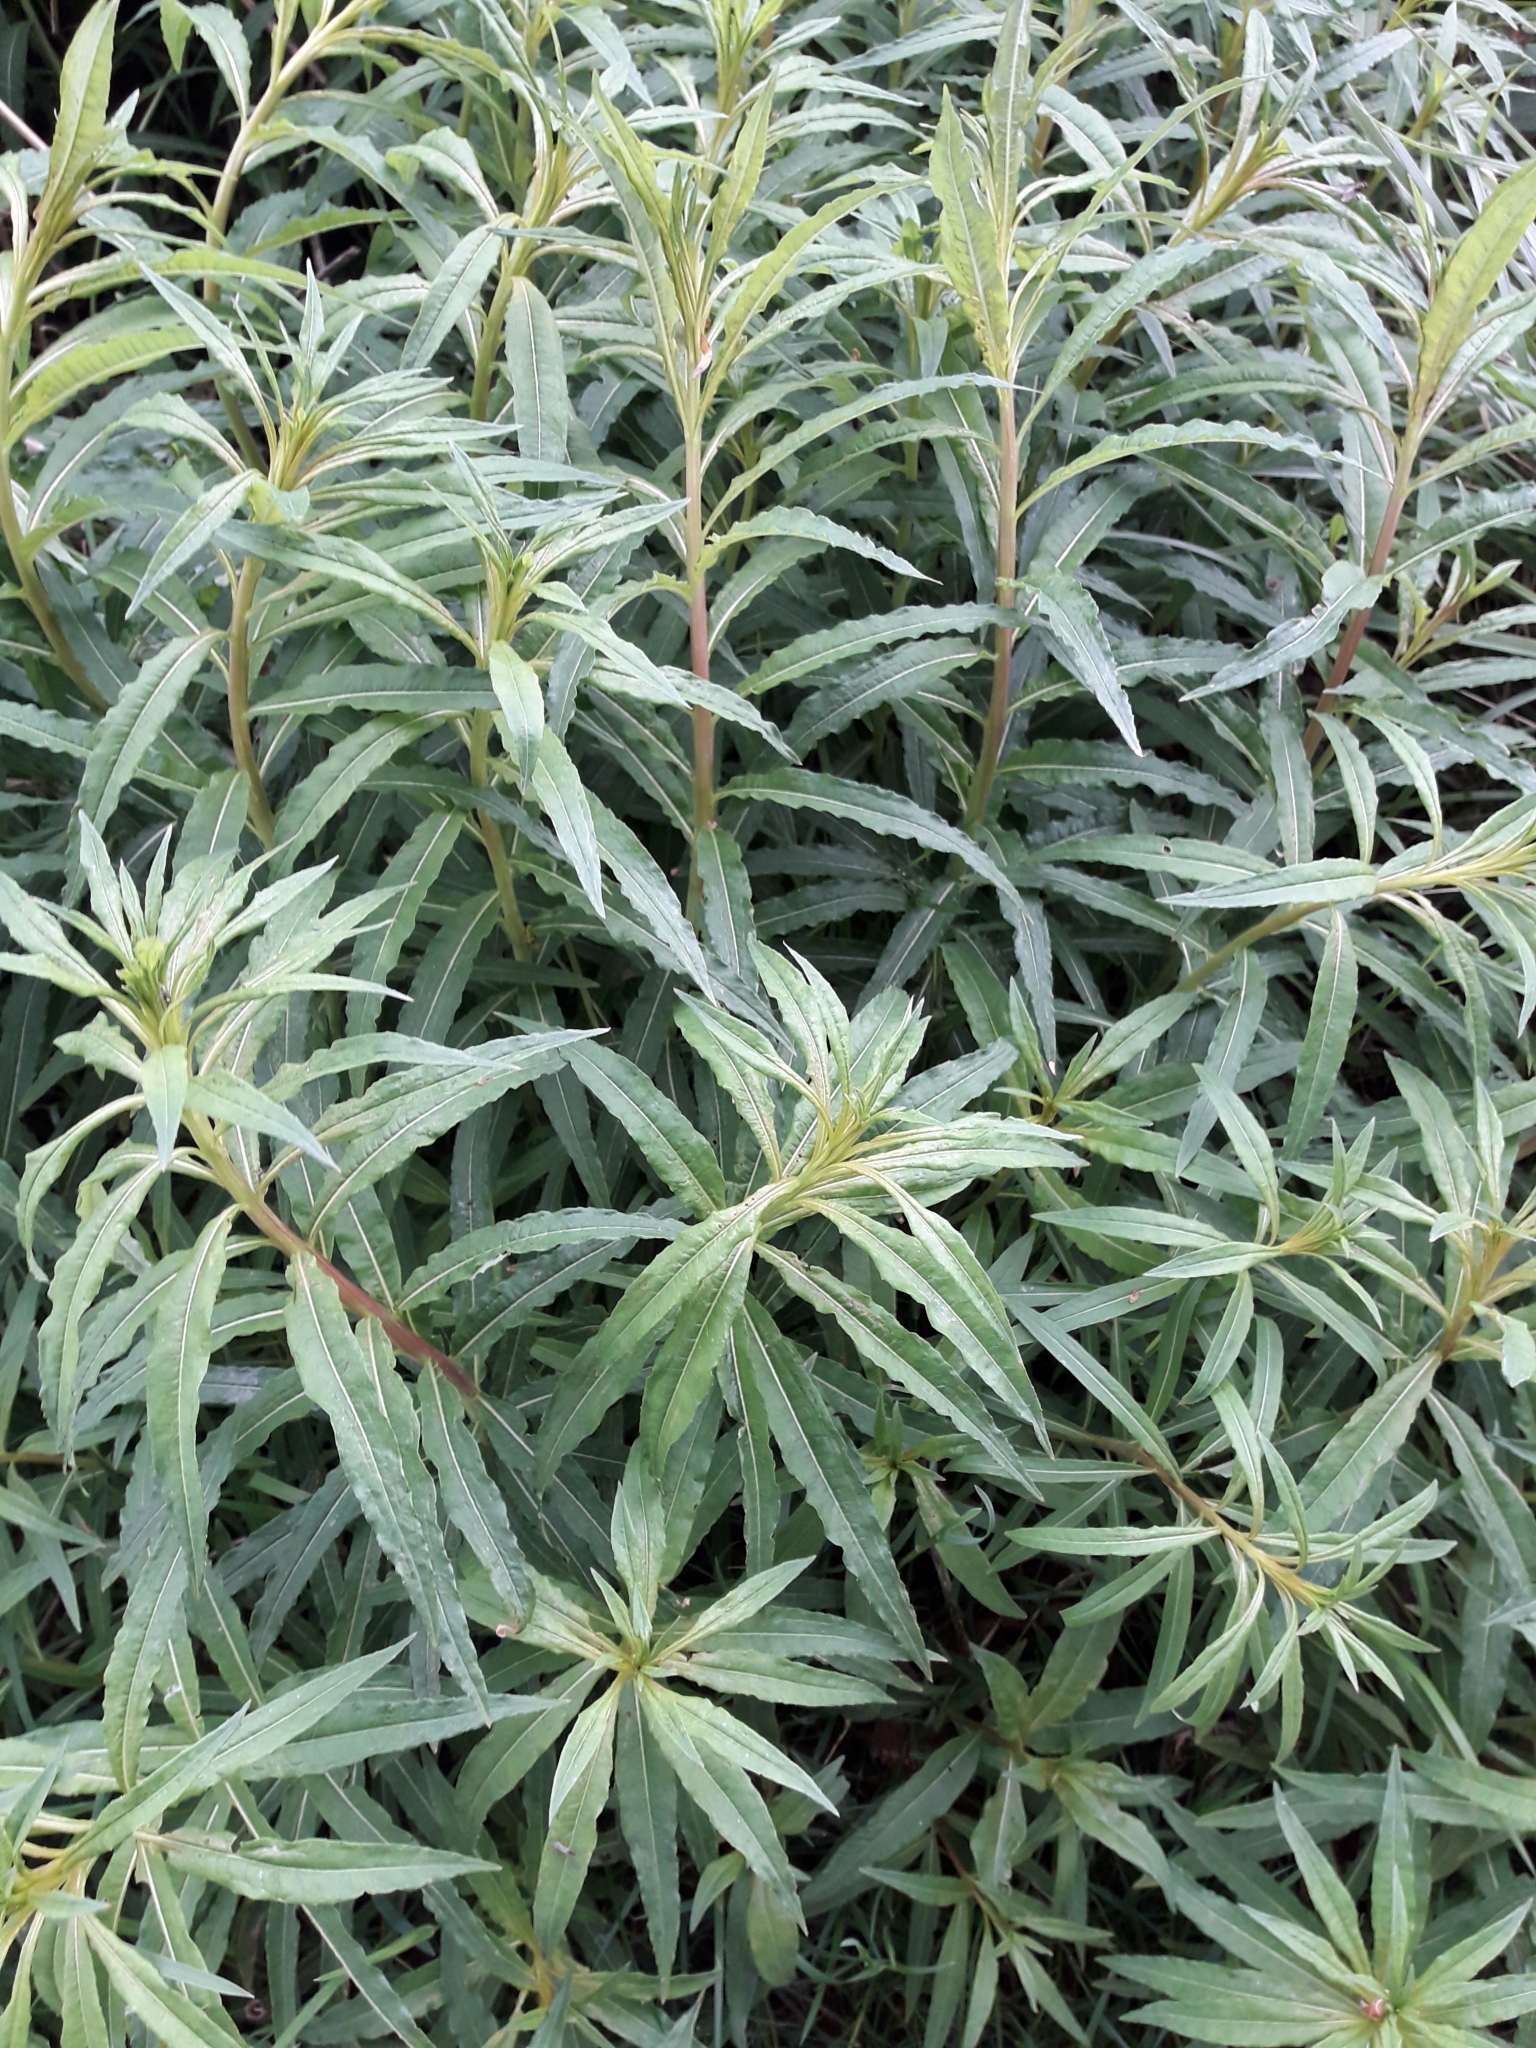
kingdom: Plantae
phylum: Tracheophyta
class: Magnoliopsida
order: Myrtales
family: Onagraceae
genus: Chamaenerion
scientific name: Chamaenerion angustifolium
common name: Fireweed
